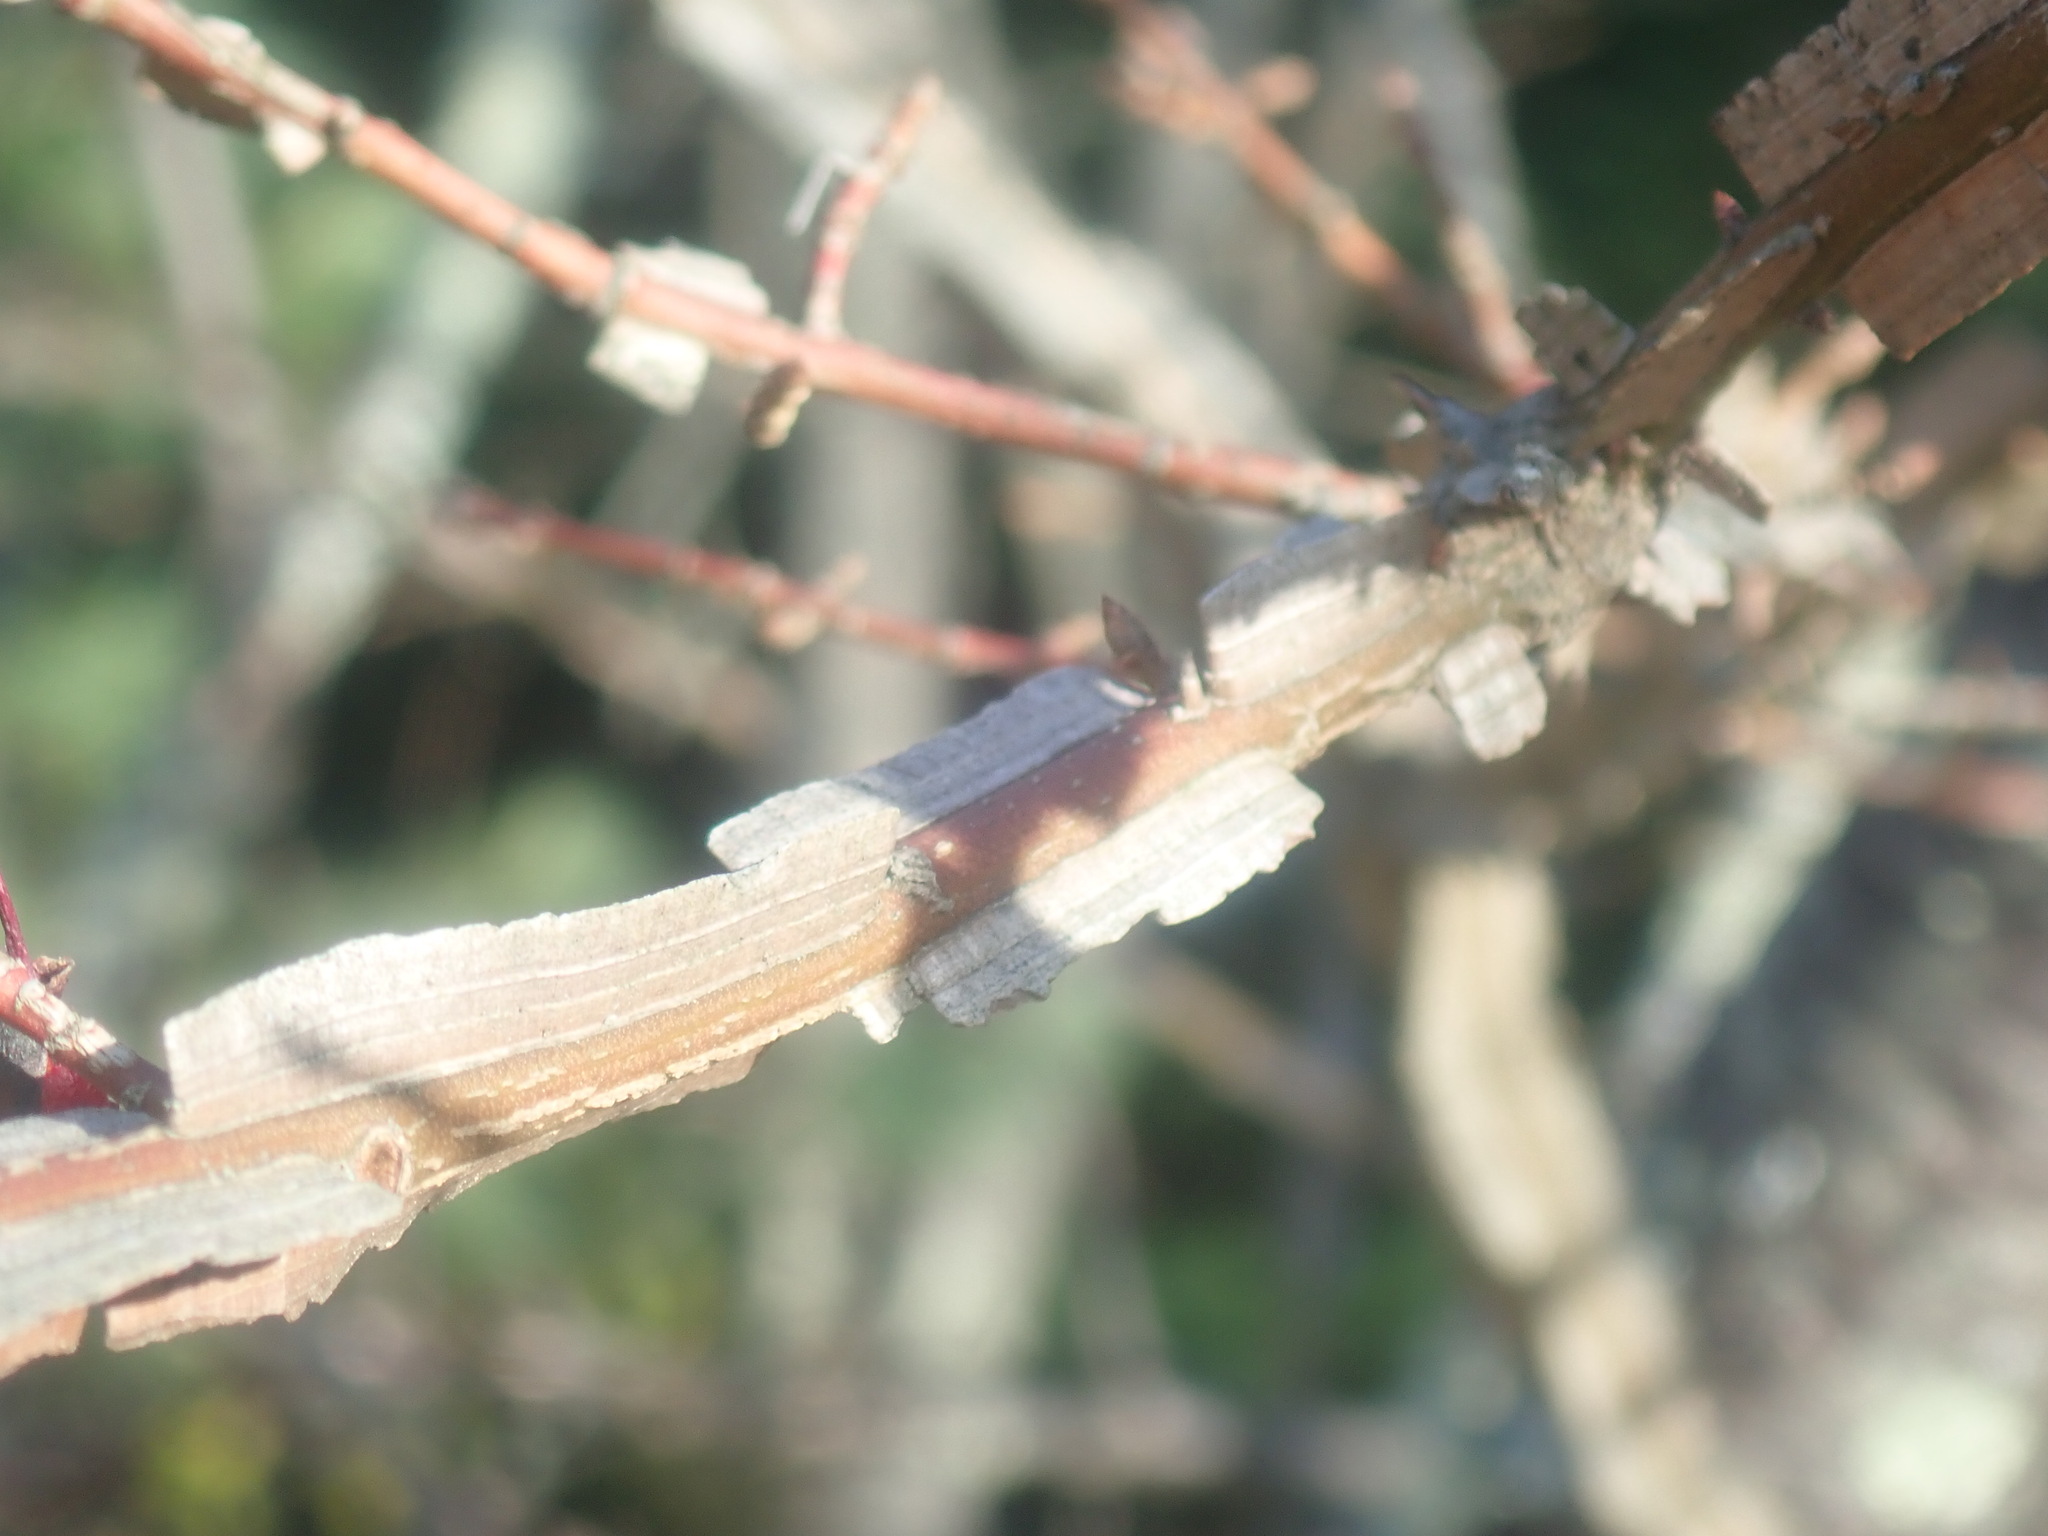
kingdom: Plantae
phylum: Tracheophyta
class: Magnoliopsida
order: Celastrales
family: Celastraceae
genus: Euonymus
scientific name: Euonymus alatus
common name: Winged euonymus
